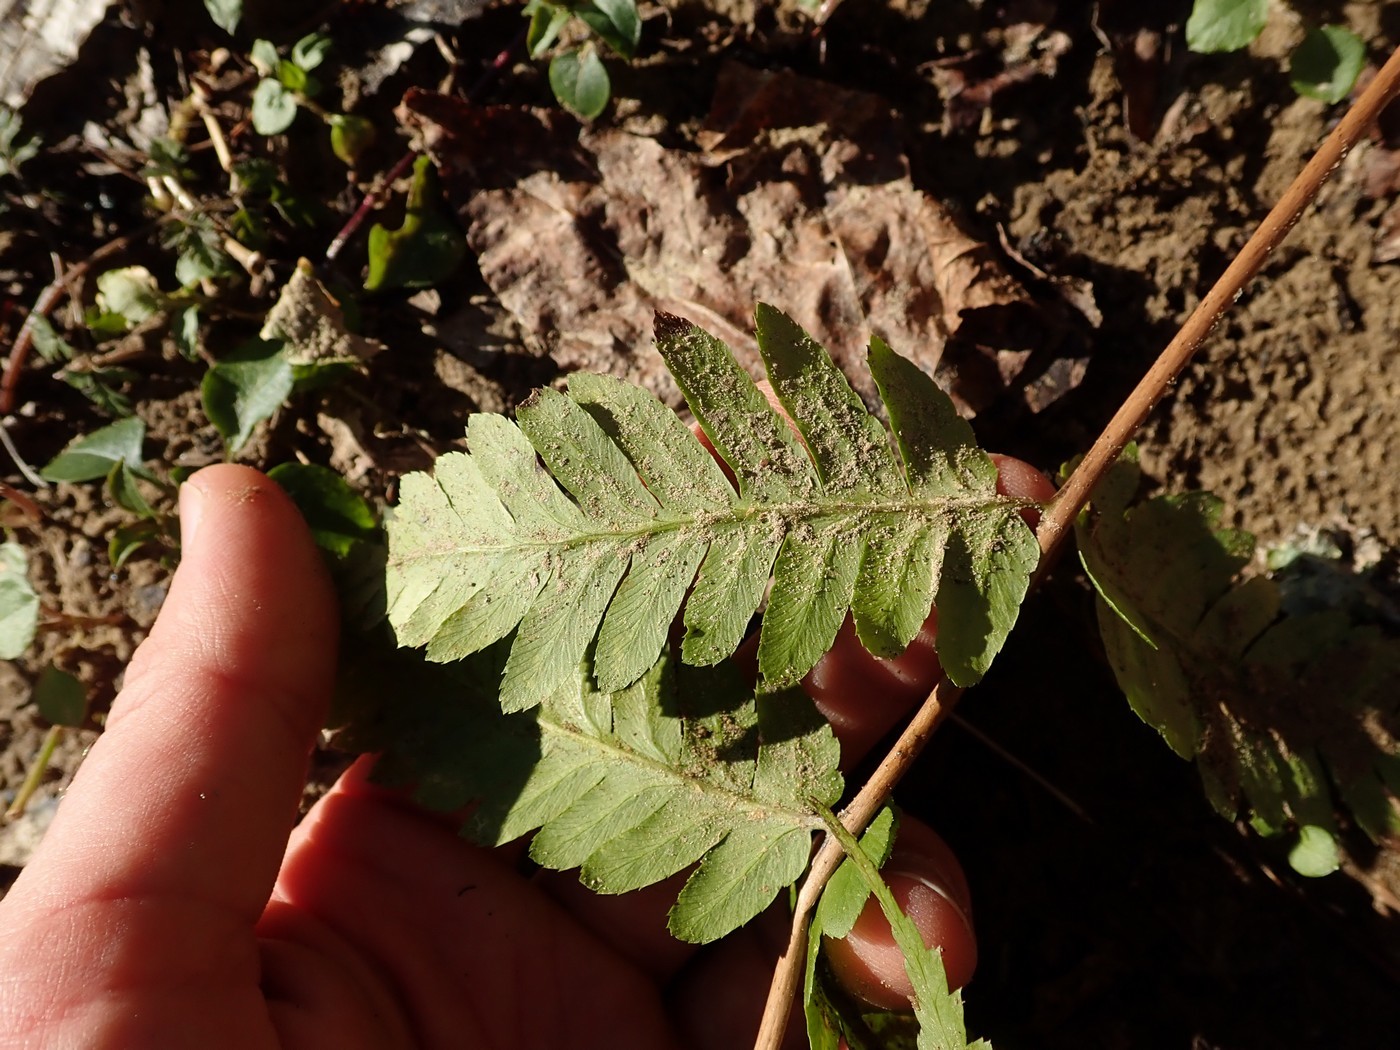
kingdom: Plantae
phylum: Tracheophyta
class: Polypodiopsida
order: Polypodiales
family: Dryopteridaceae
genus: Dryopteris
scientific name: Dryopteris celsa
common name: Log fern
